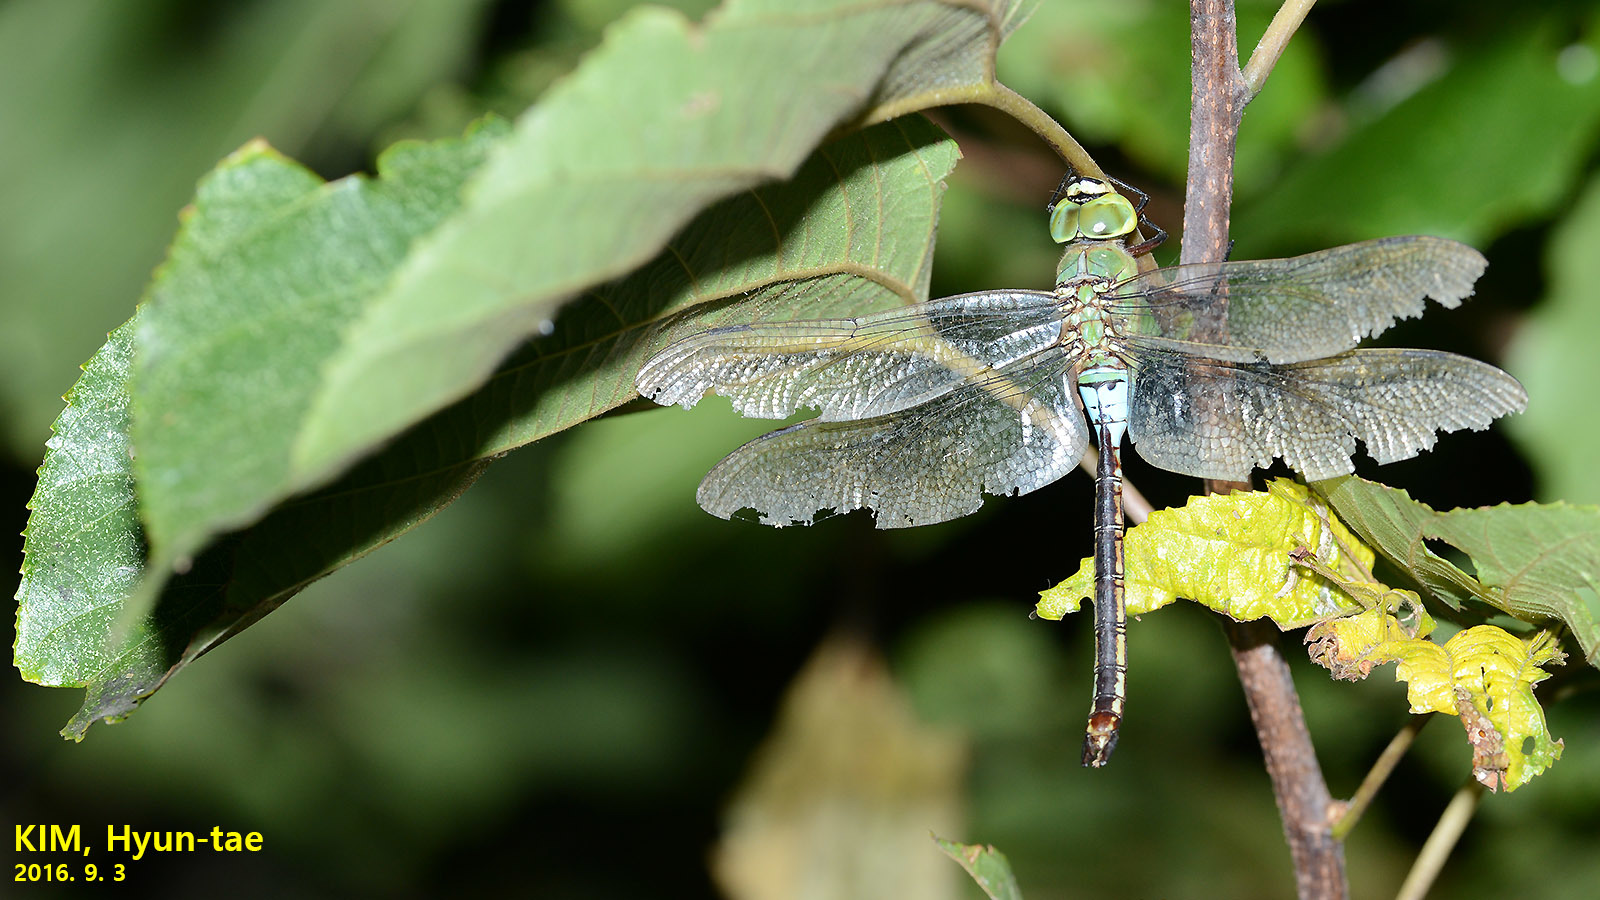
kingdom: Animalia
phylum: Arthropoda
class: Insecta
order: Odonata
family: Aeshnidae
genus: Anax
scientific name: Anax julius
